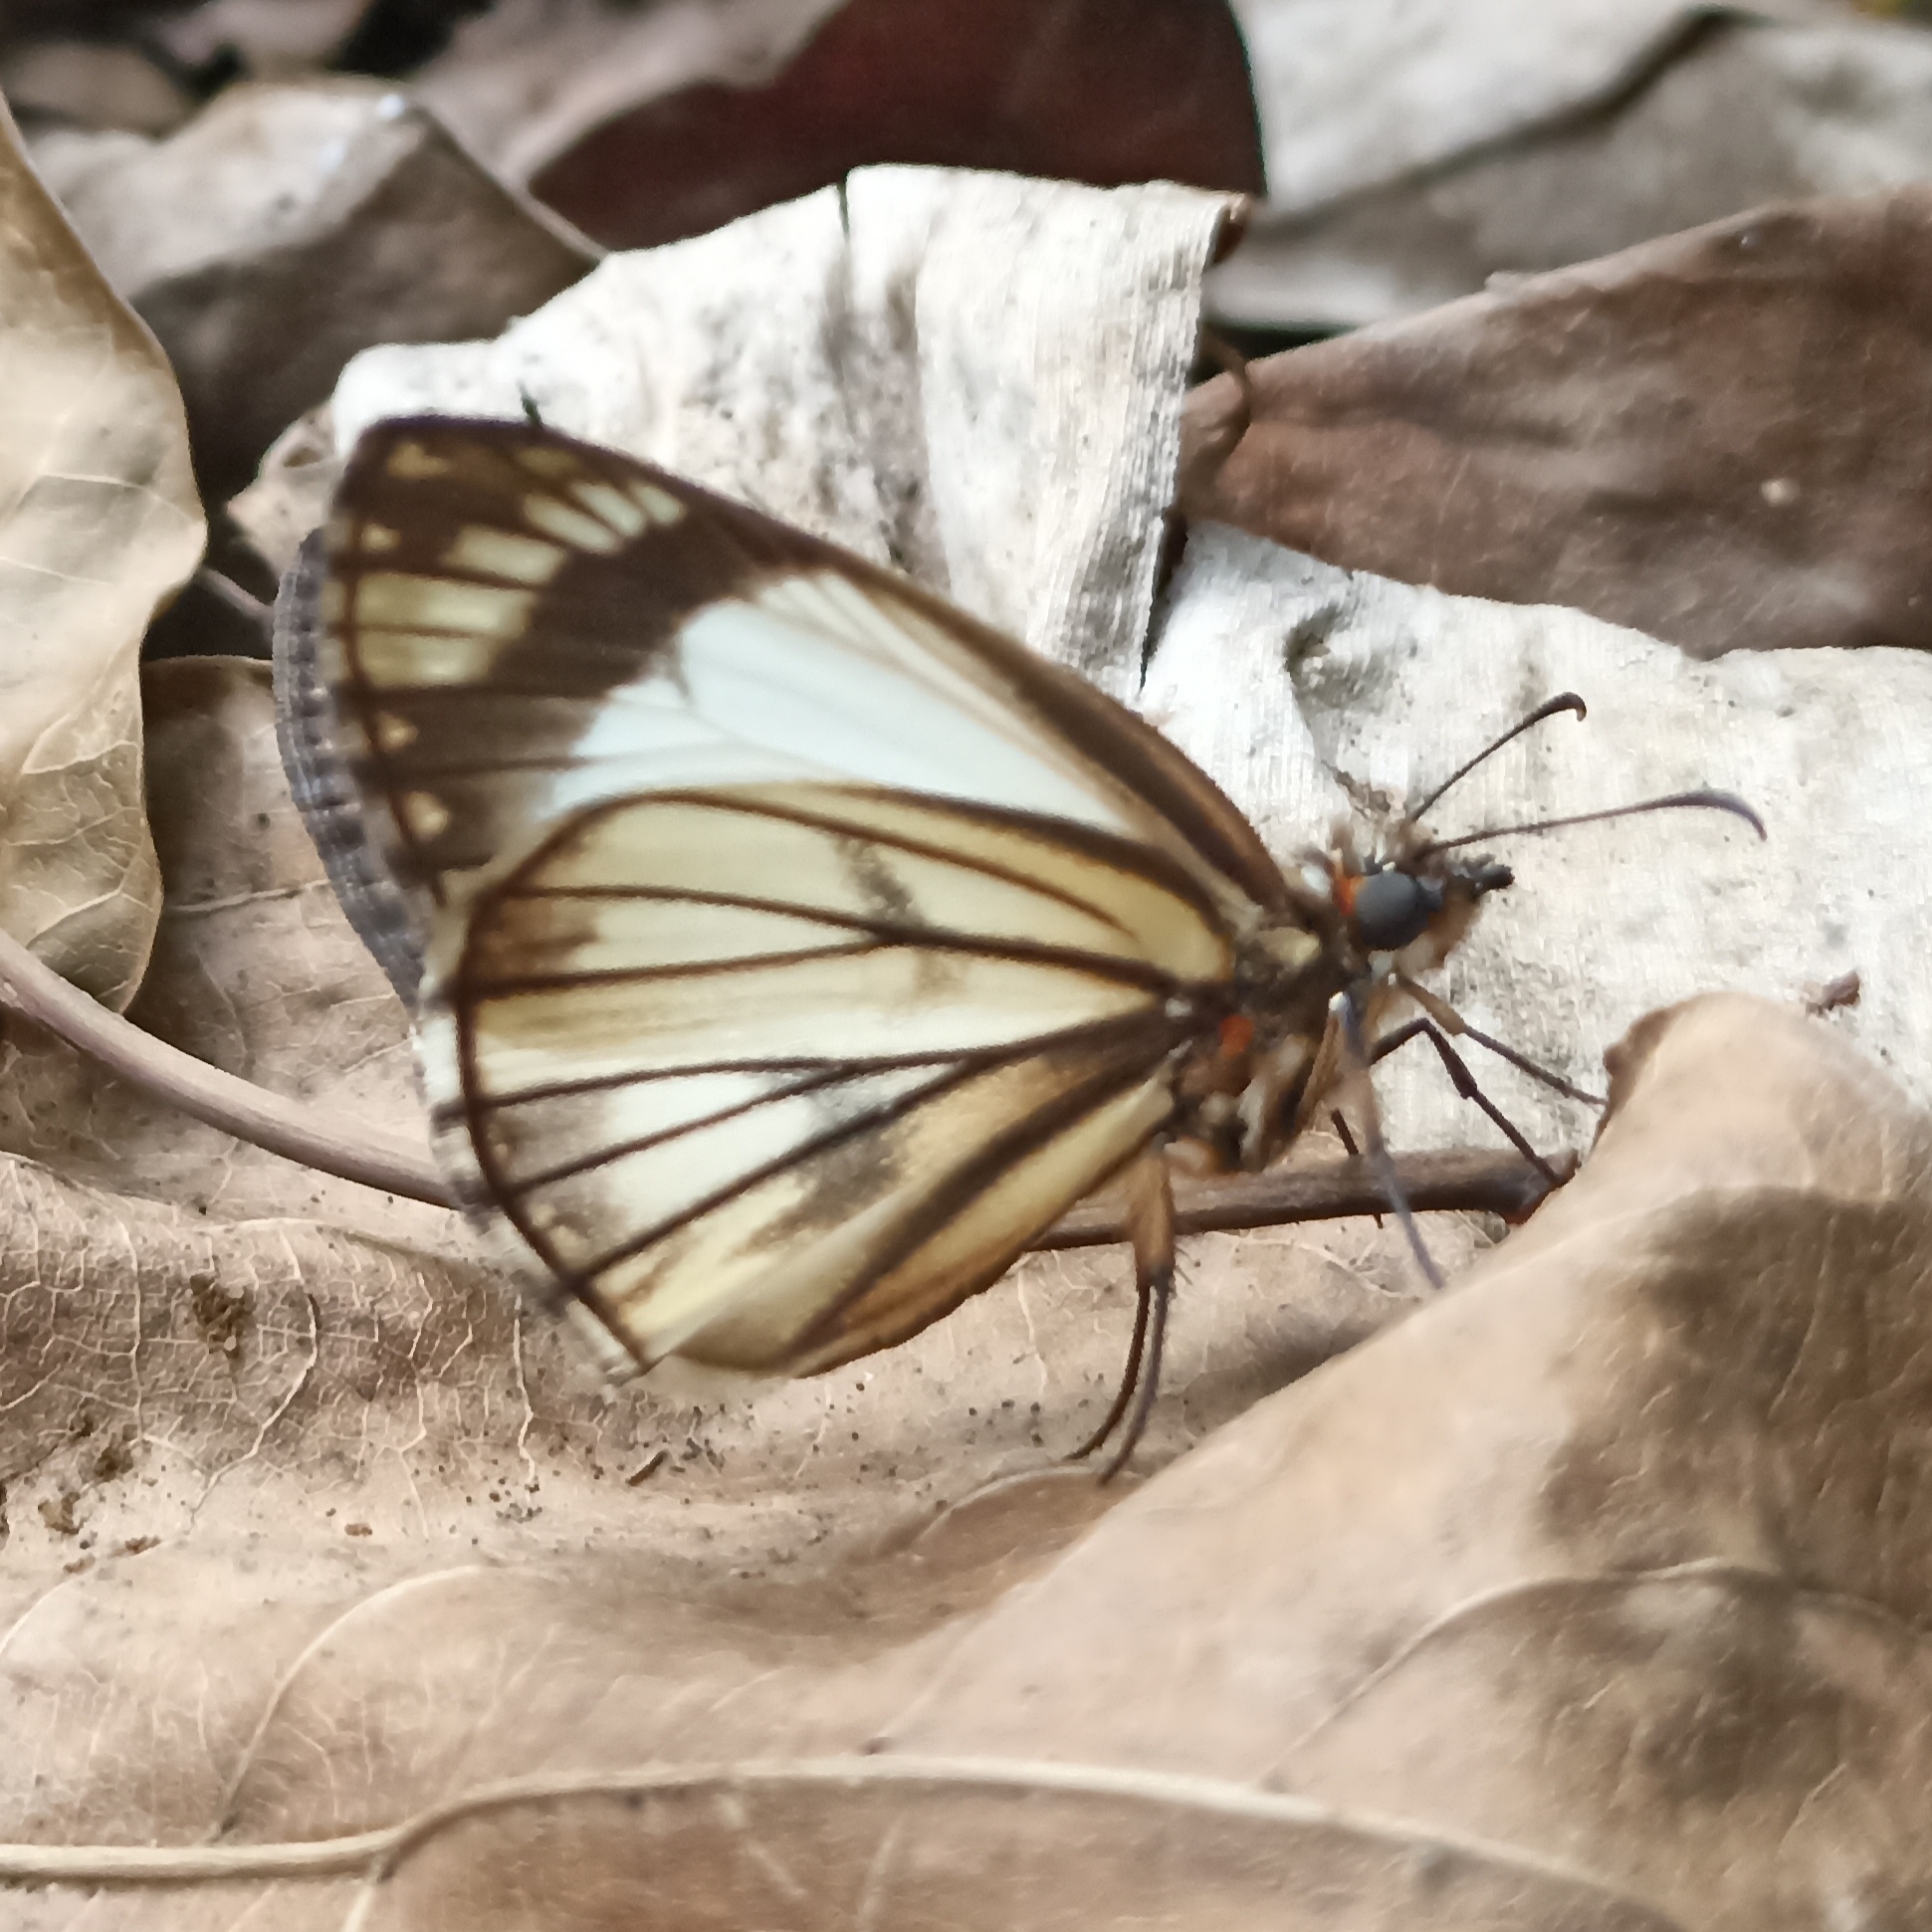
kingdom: Animalia
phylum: Arthropoda
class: Insecta
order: Lepidoptera
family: Hesperiidae
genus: Heliopetes
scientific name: Heliopetes alana
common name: Alana white-skipper
